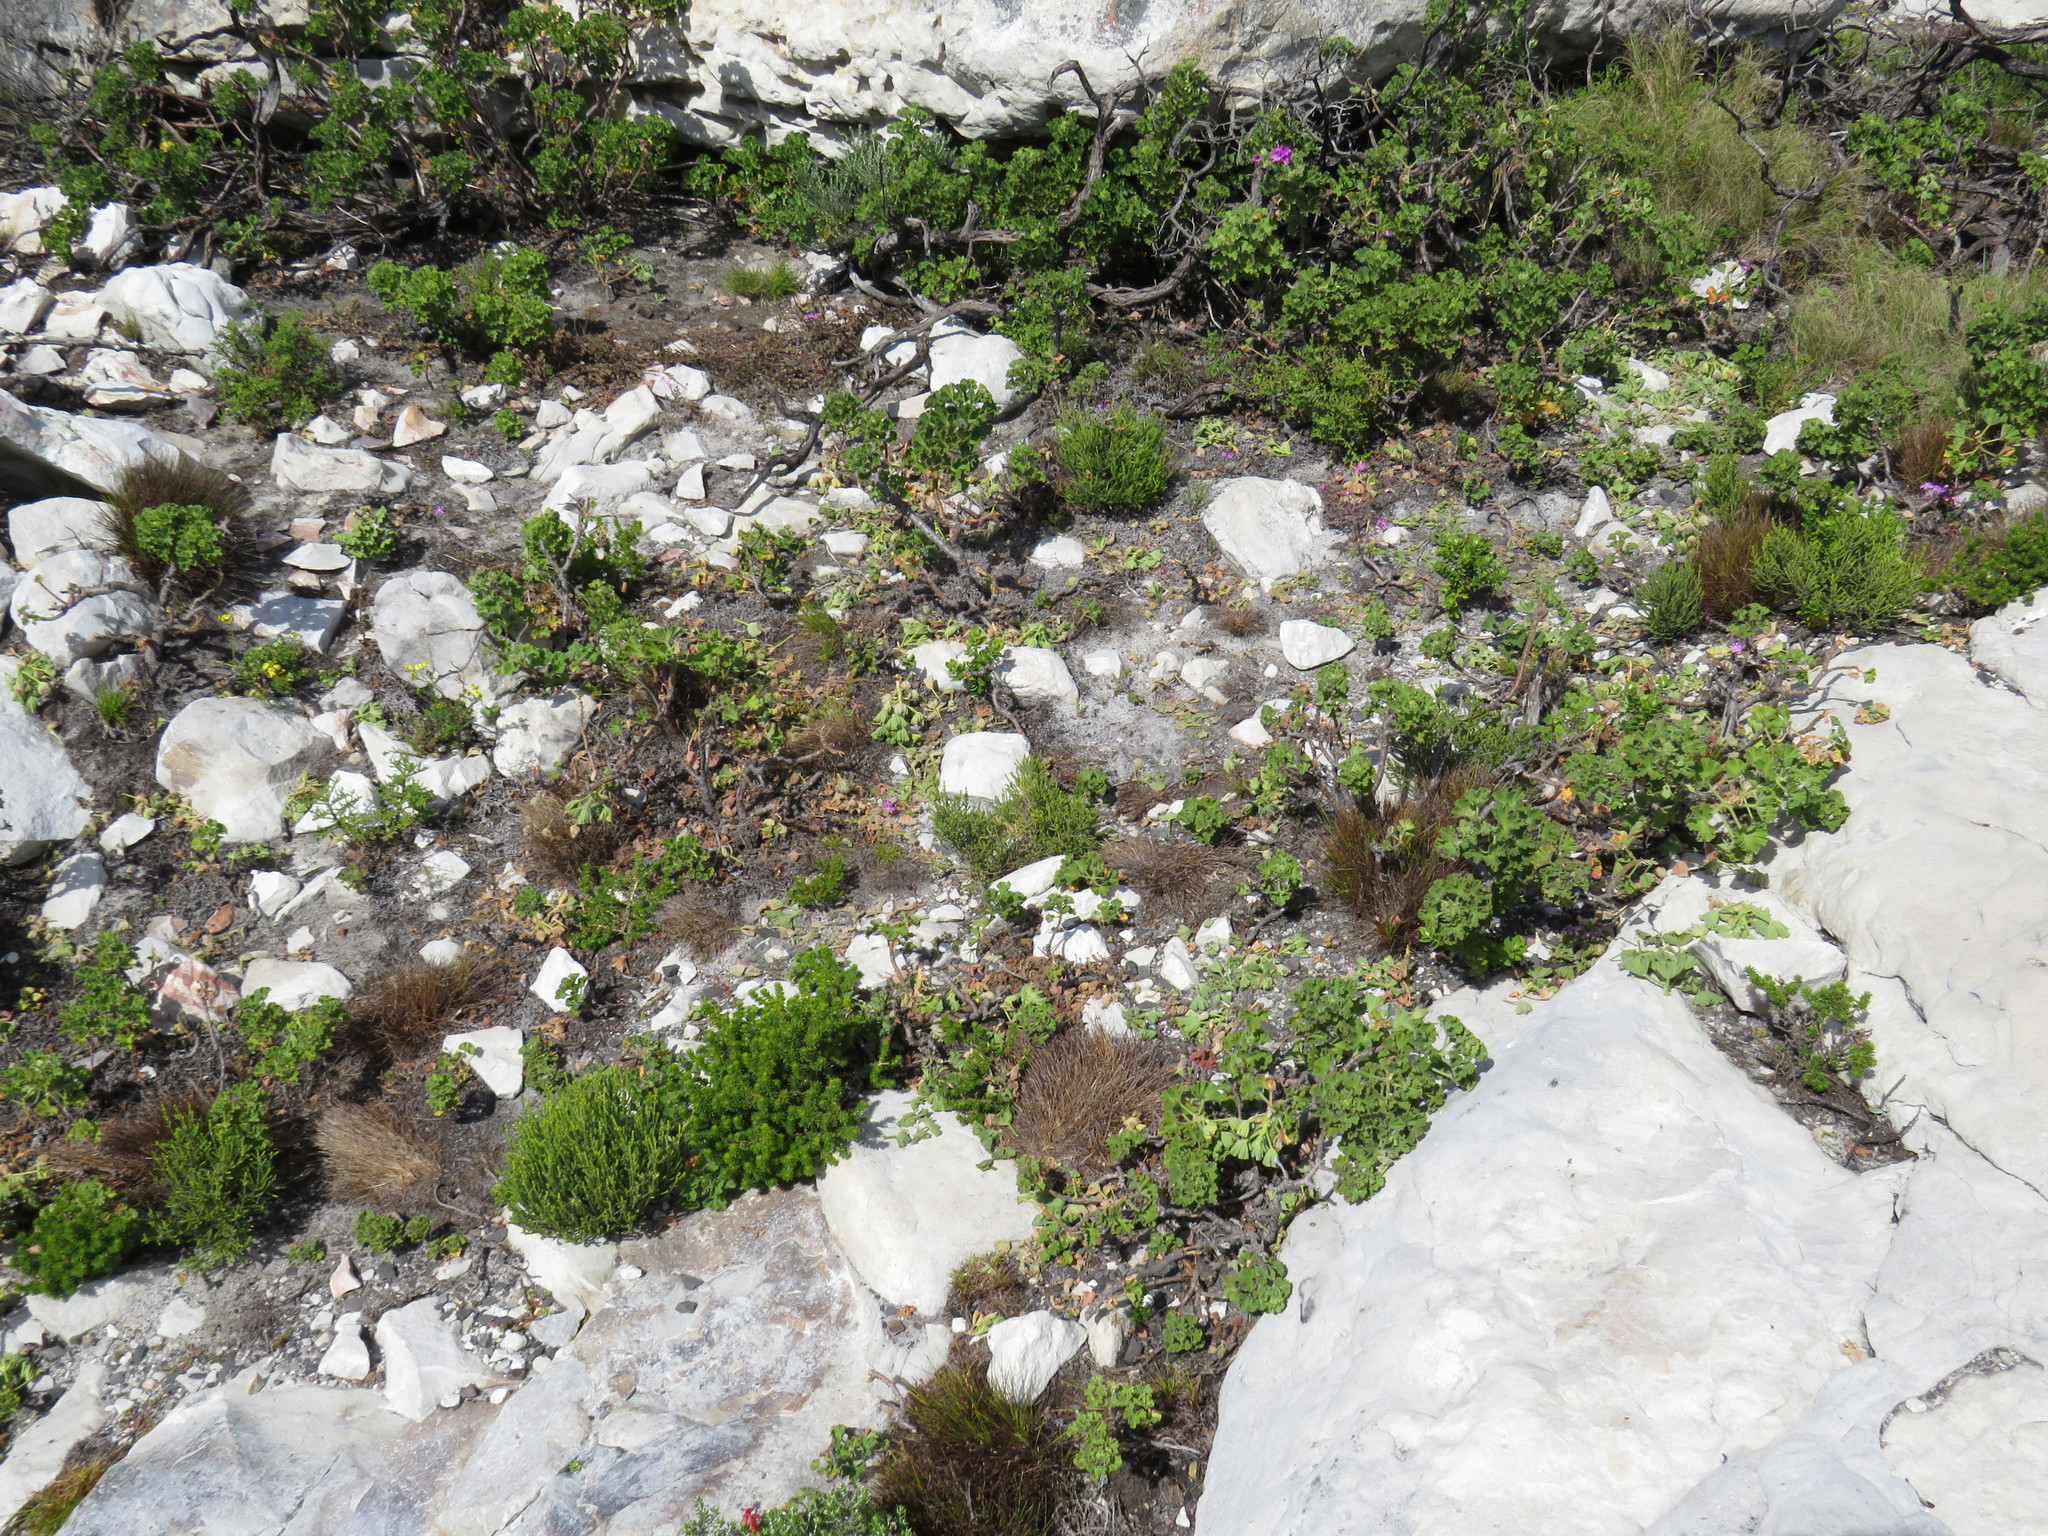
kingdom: Animalia
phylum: Chordata
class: Mammalia
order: Hyracoidea
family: Procaviidae
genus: Procavia
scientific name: Procavia capensis
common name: Rock hyrax
